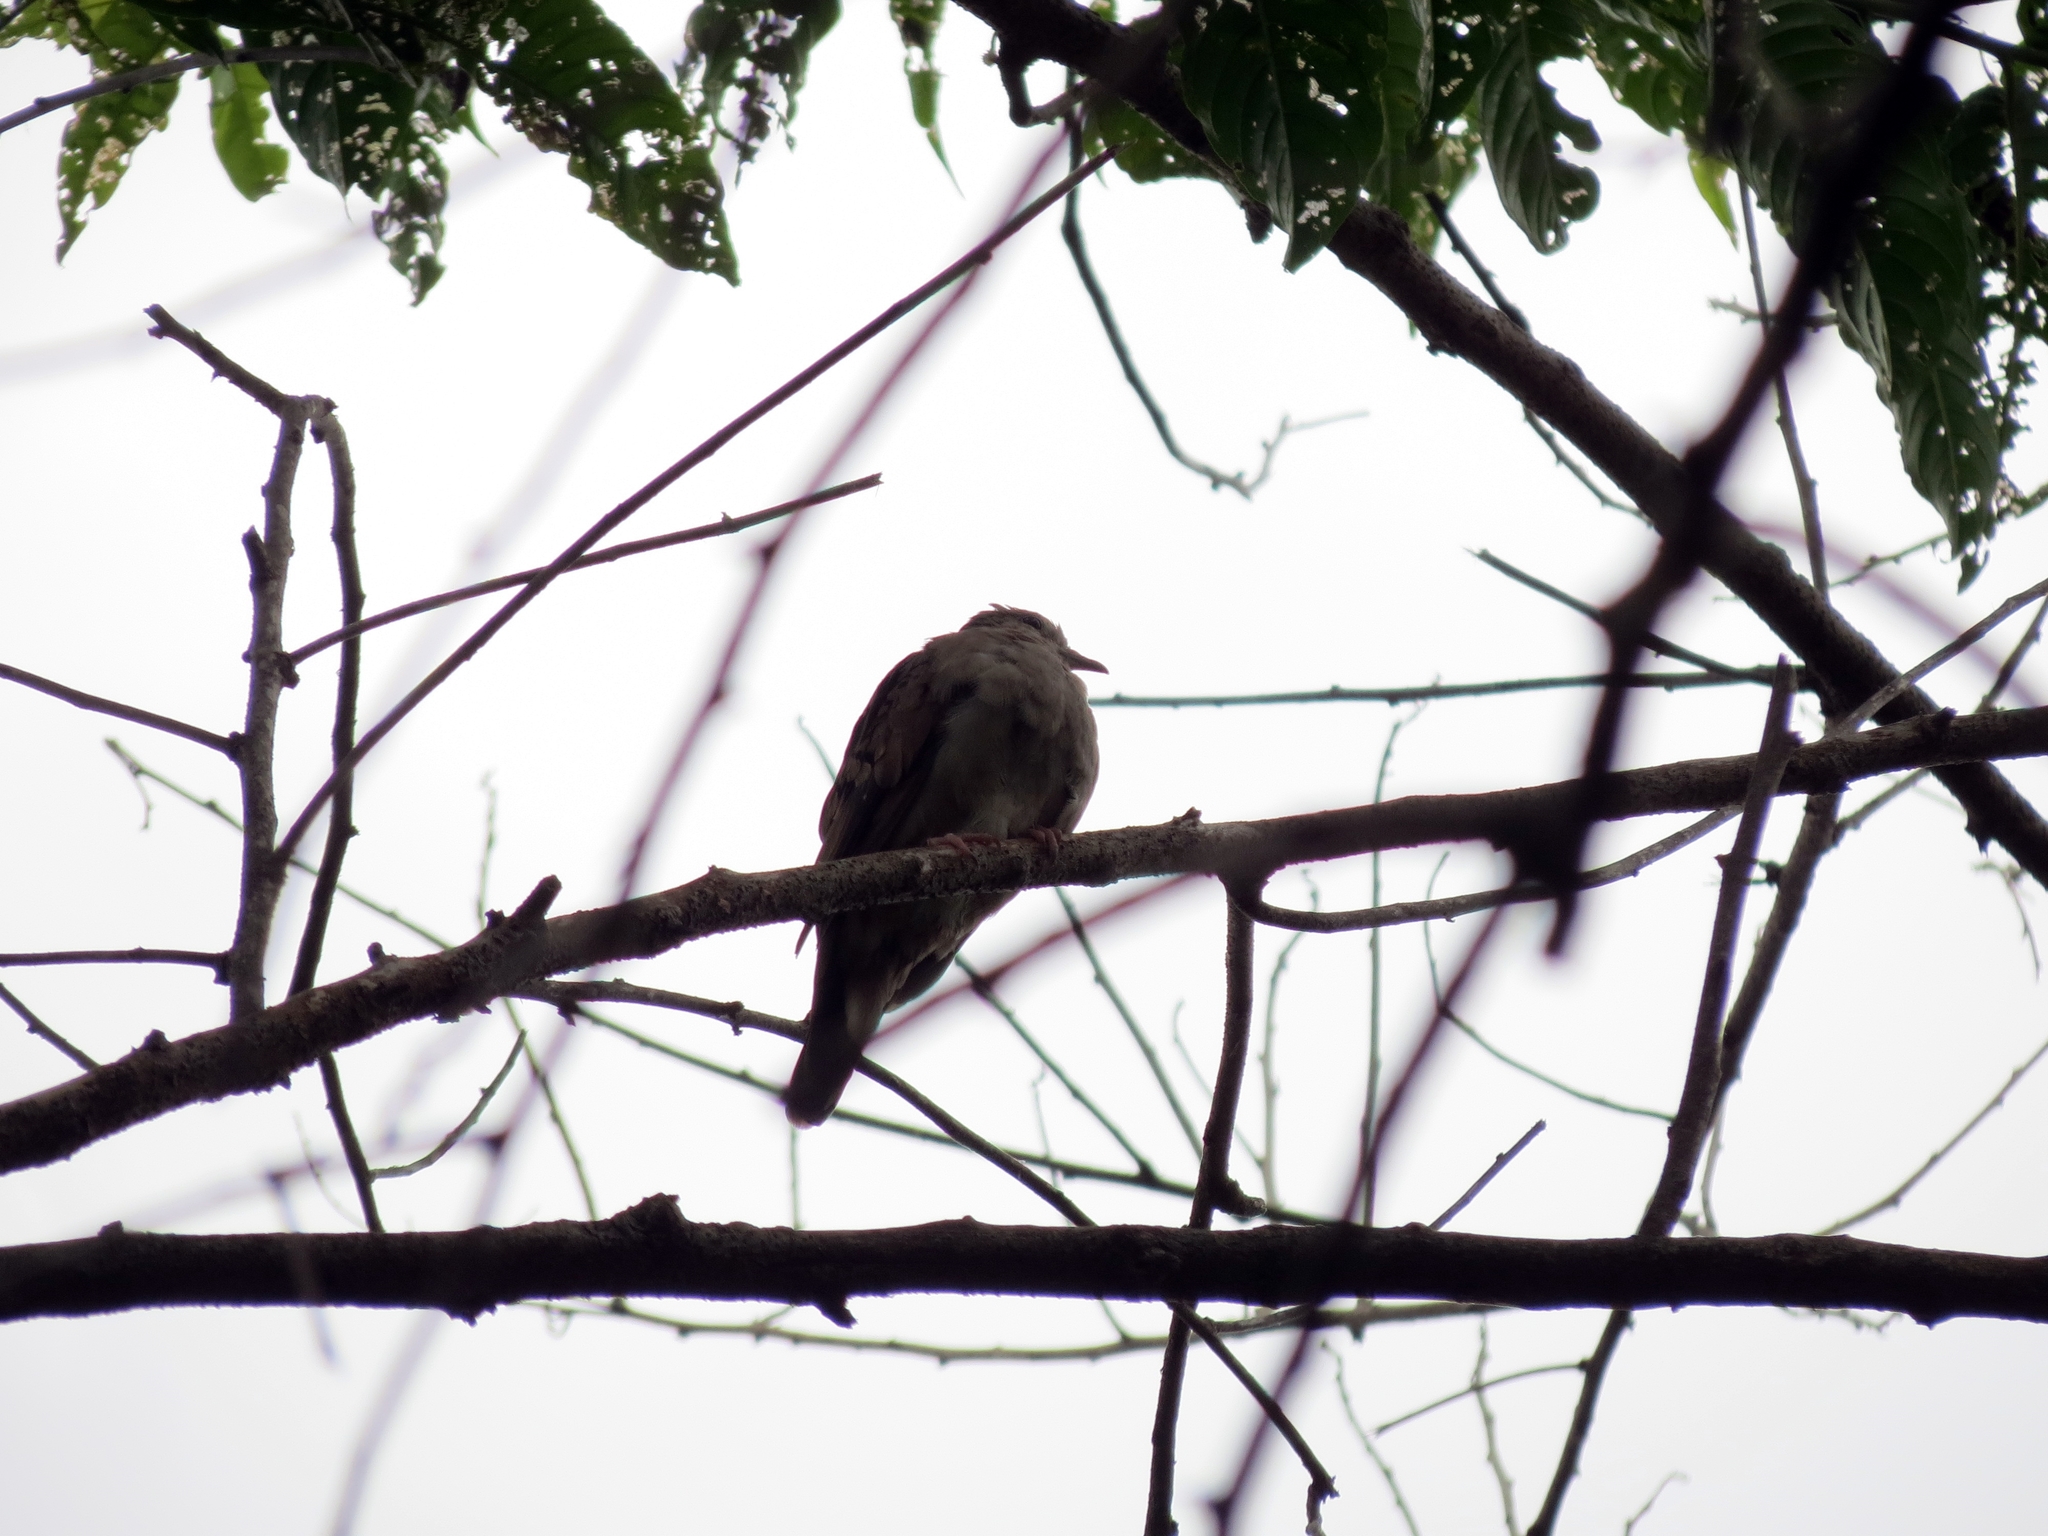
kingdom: Animalia
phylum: Chordata
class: Aves
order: Columbiformes
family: Columbidae
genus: Columbina
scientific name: Columbina talpacoti
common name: Ruddy ground dove
